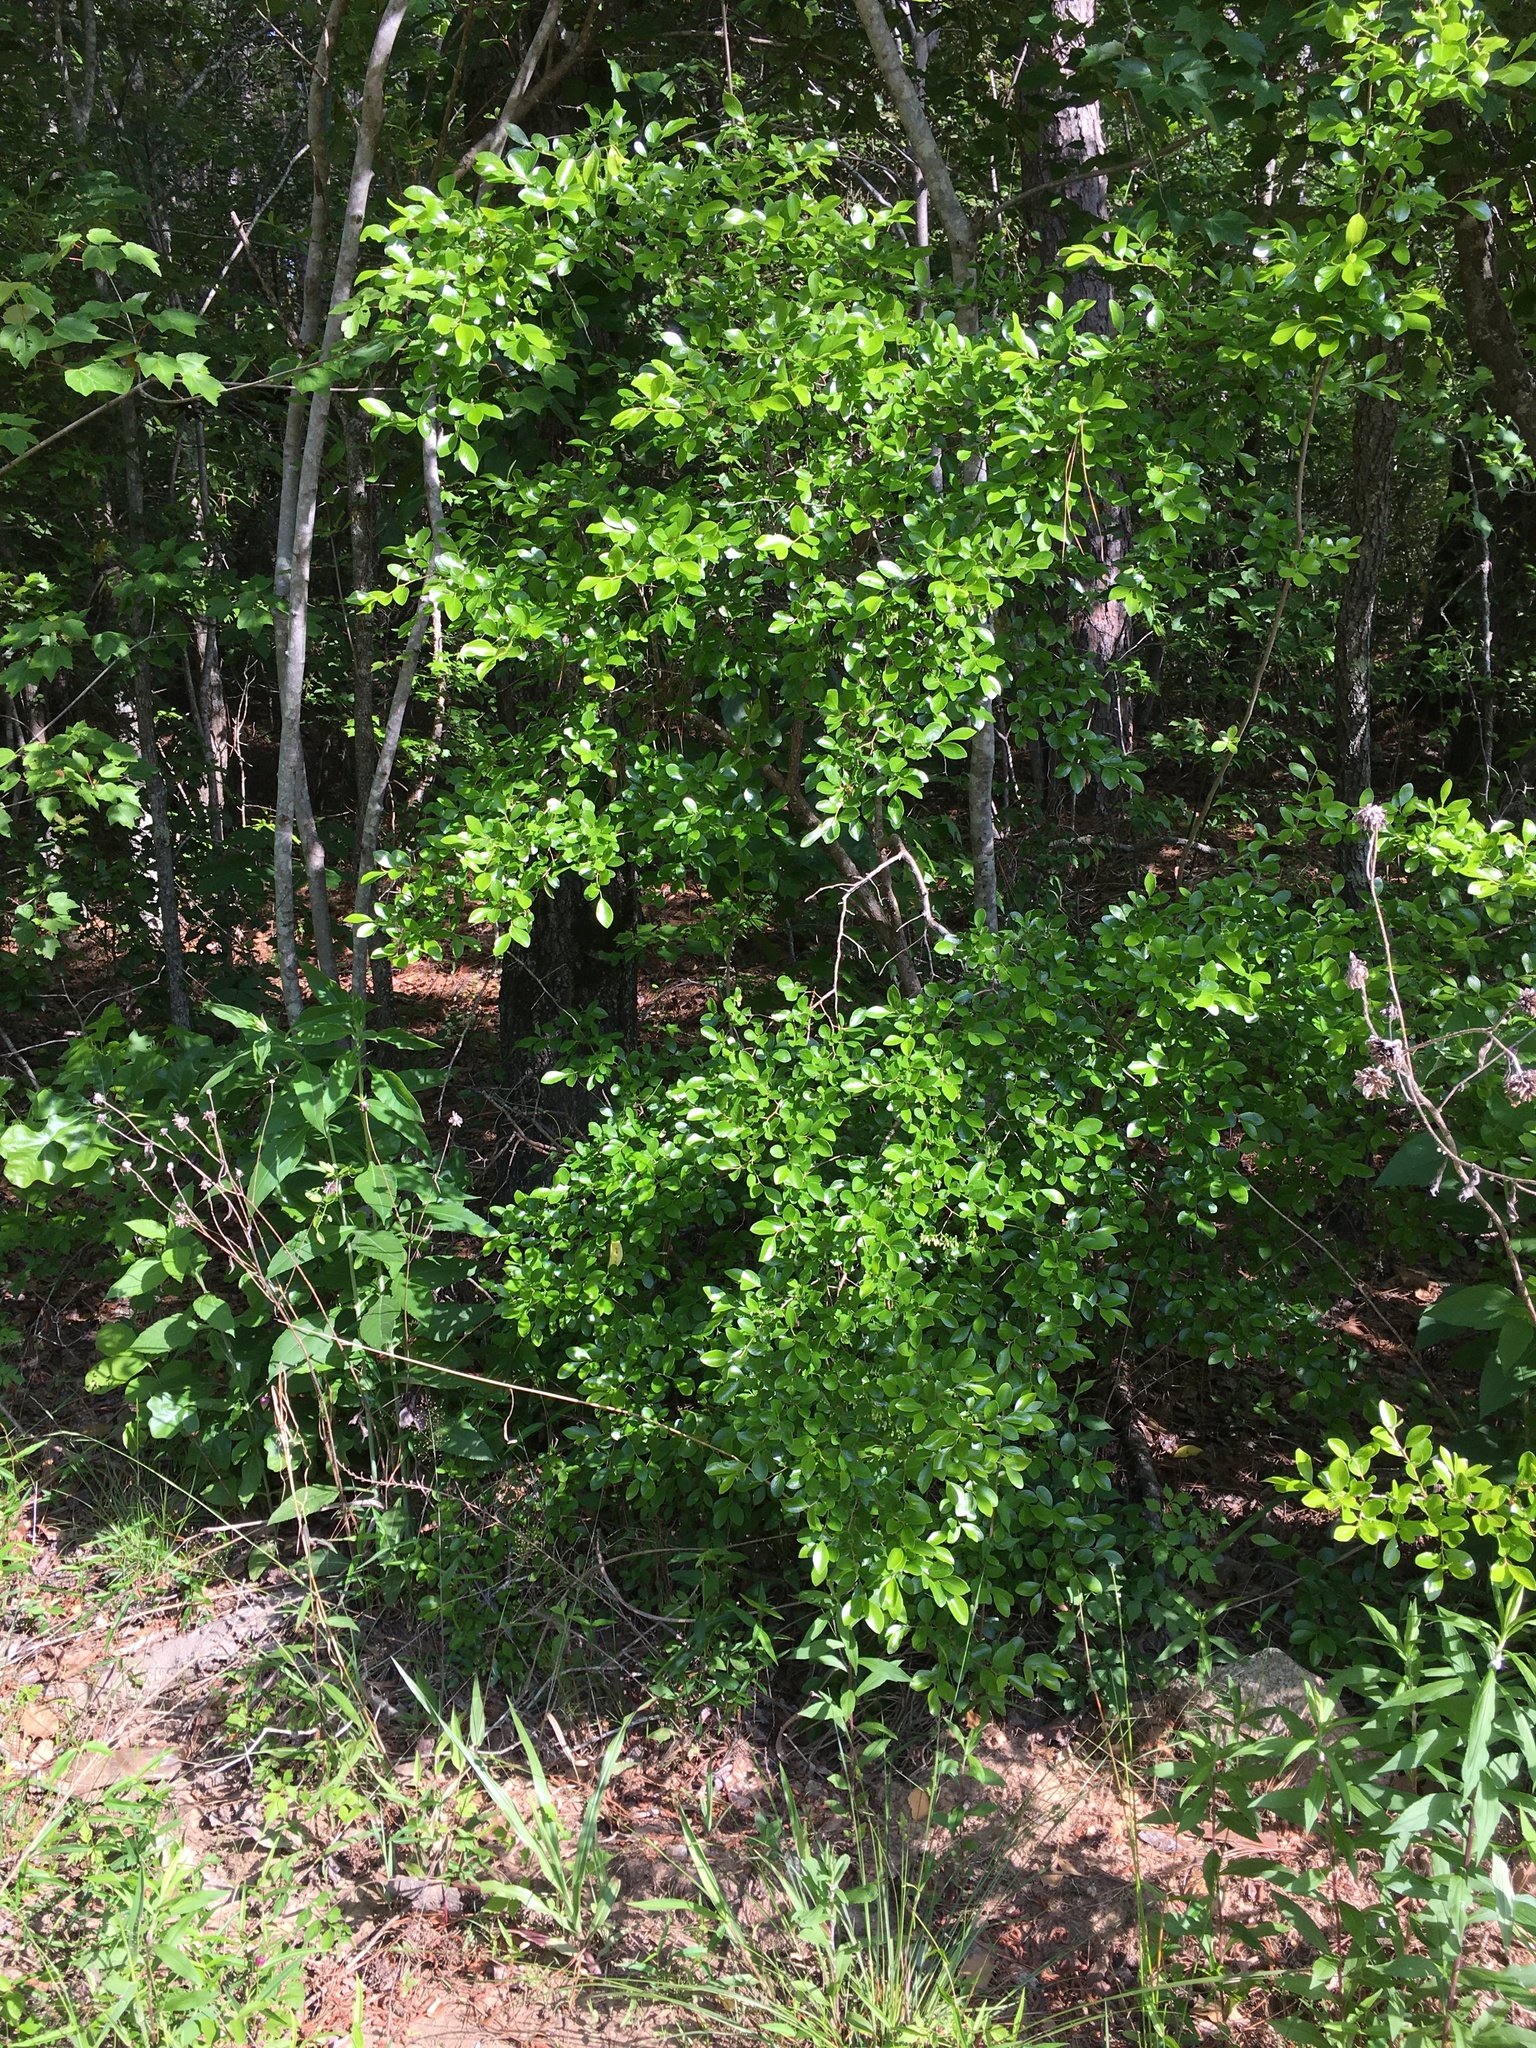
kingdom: Plantae
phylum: Tracheophyta
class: Magnoliopsida
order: Ericales
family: Ericaceae
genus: Vaccinium
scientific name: Vaccinium arboreum
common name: Farkleberry
